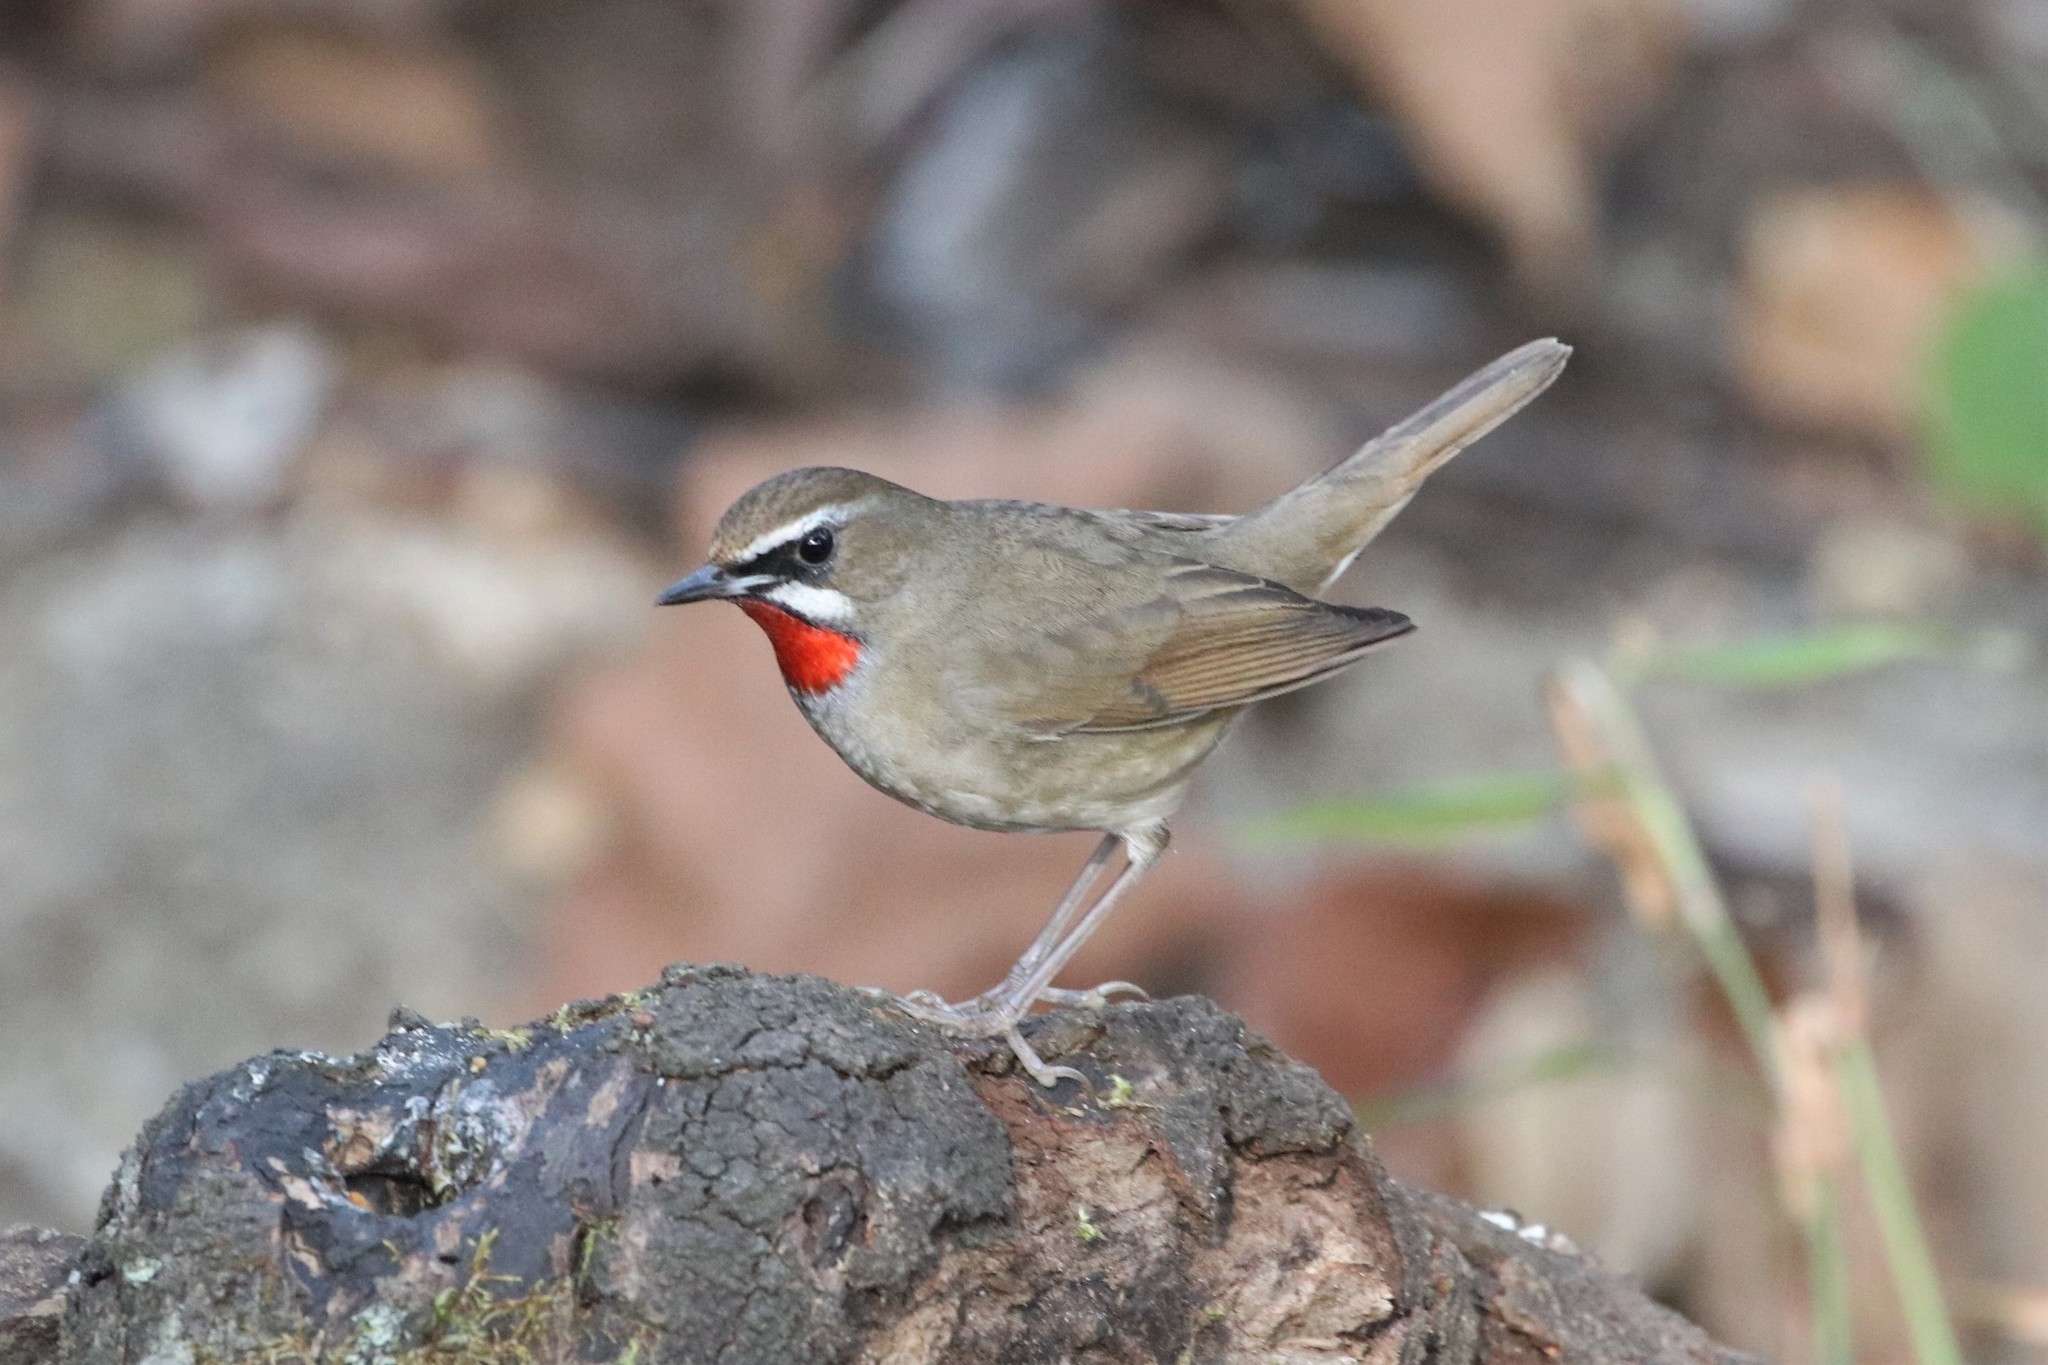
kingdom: Animalia
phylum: Chordata
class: Aves
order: Passeriformes
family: Muscicapidae
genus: Luscinia
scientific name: Luscinia calliope
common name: Siberian rubythroat
